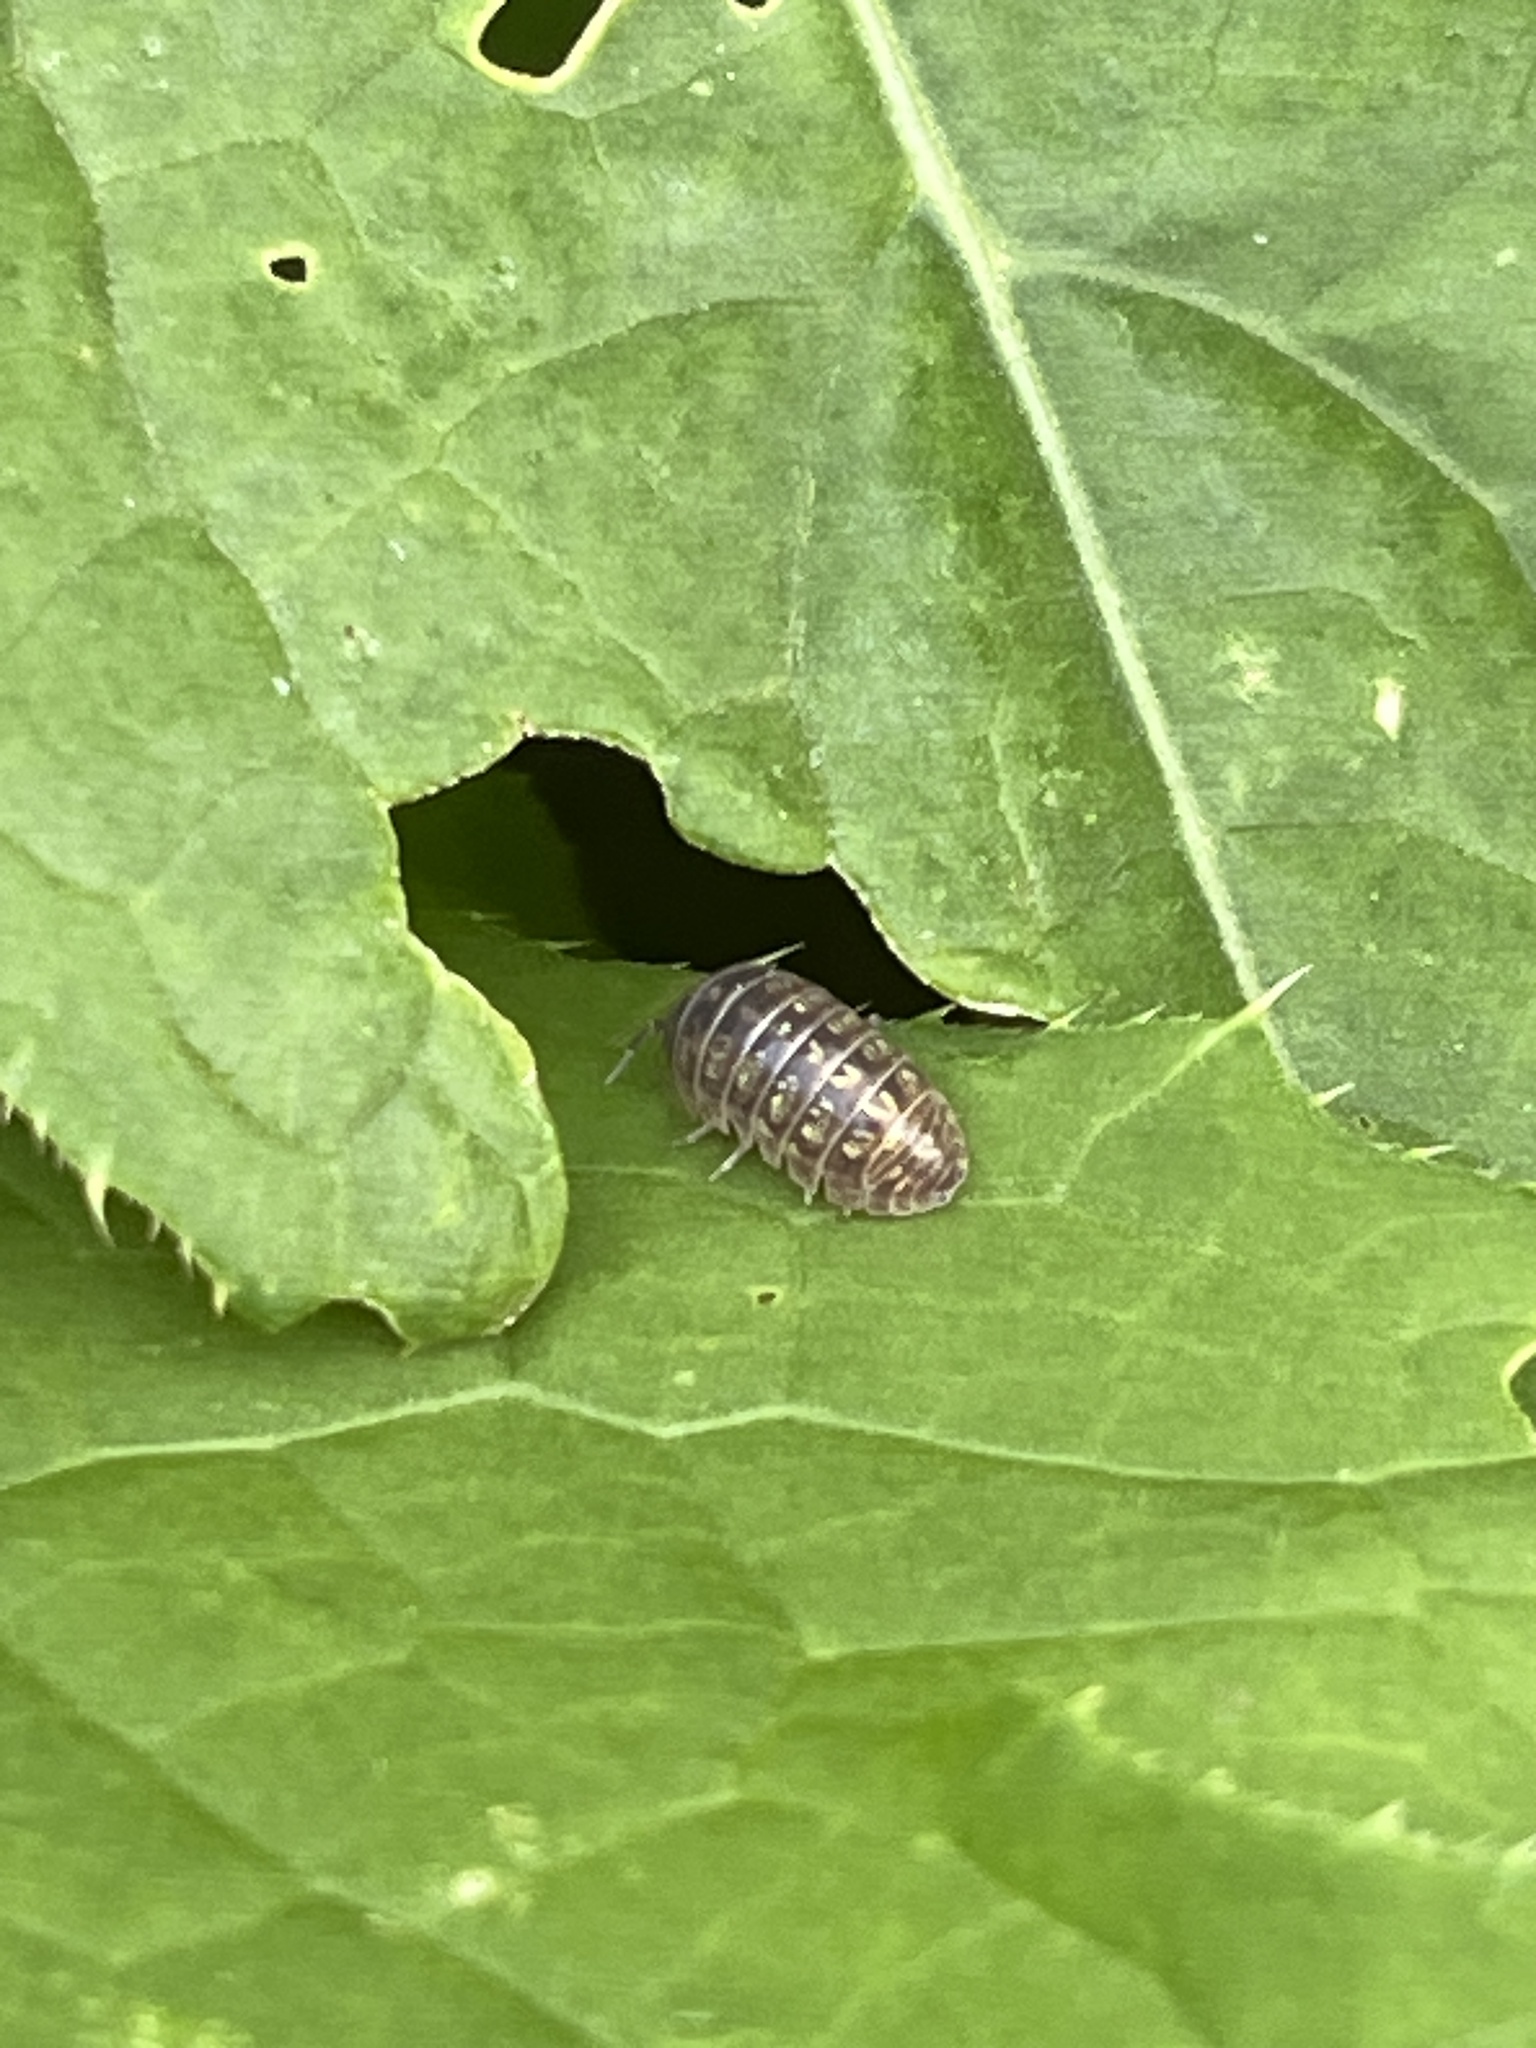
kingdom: Animalia
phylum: Arthropoda
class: Malacostraca
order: Isopoda
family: Armadillidiidae
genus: Armadillidium
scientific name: Armadillidium vulgare
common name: Common pill woodlouse
